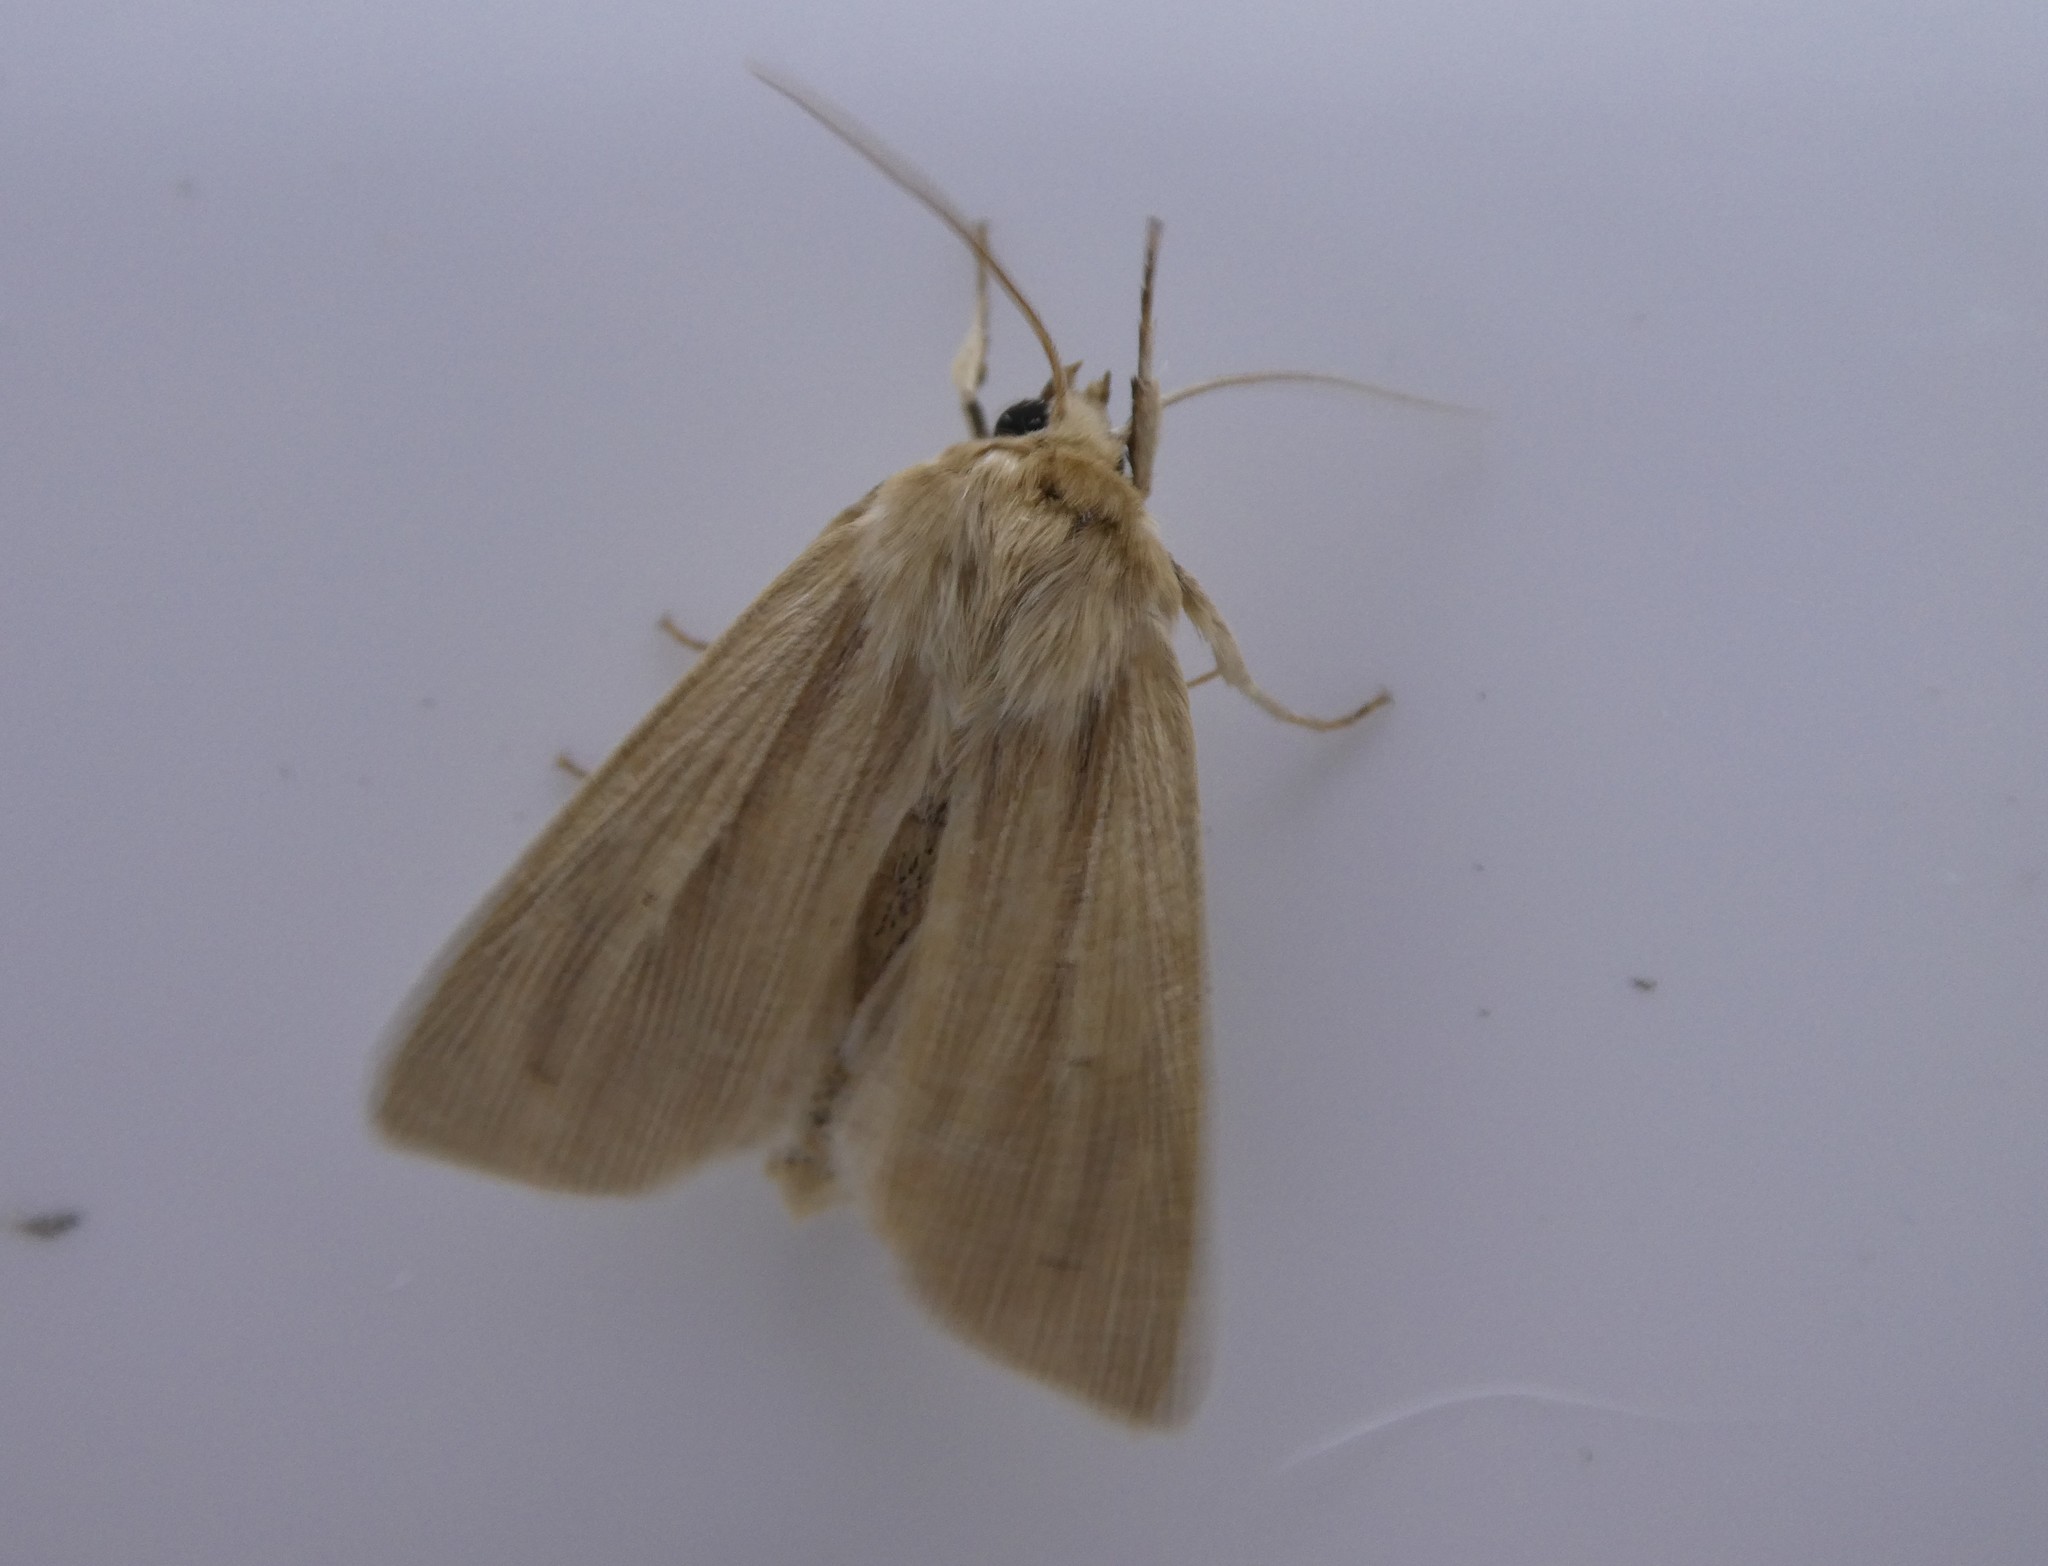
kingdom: Animalia
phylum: Arthropoda
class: Insecta
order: Lepidoptera
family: Noctuidae
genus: Mythimna
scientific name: Mythimna oxygala
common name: Lesser wainscot
